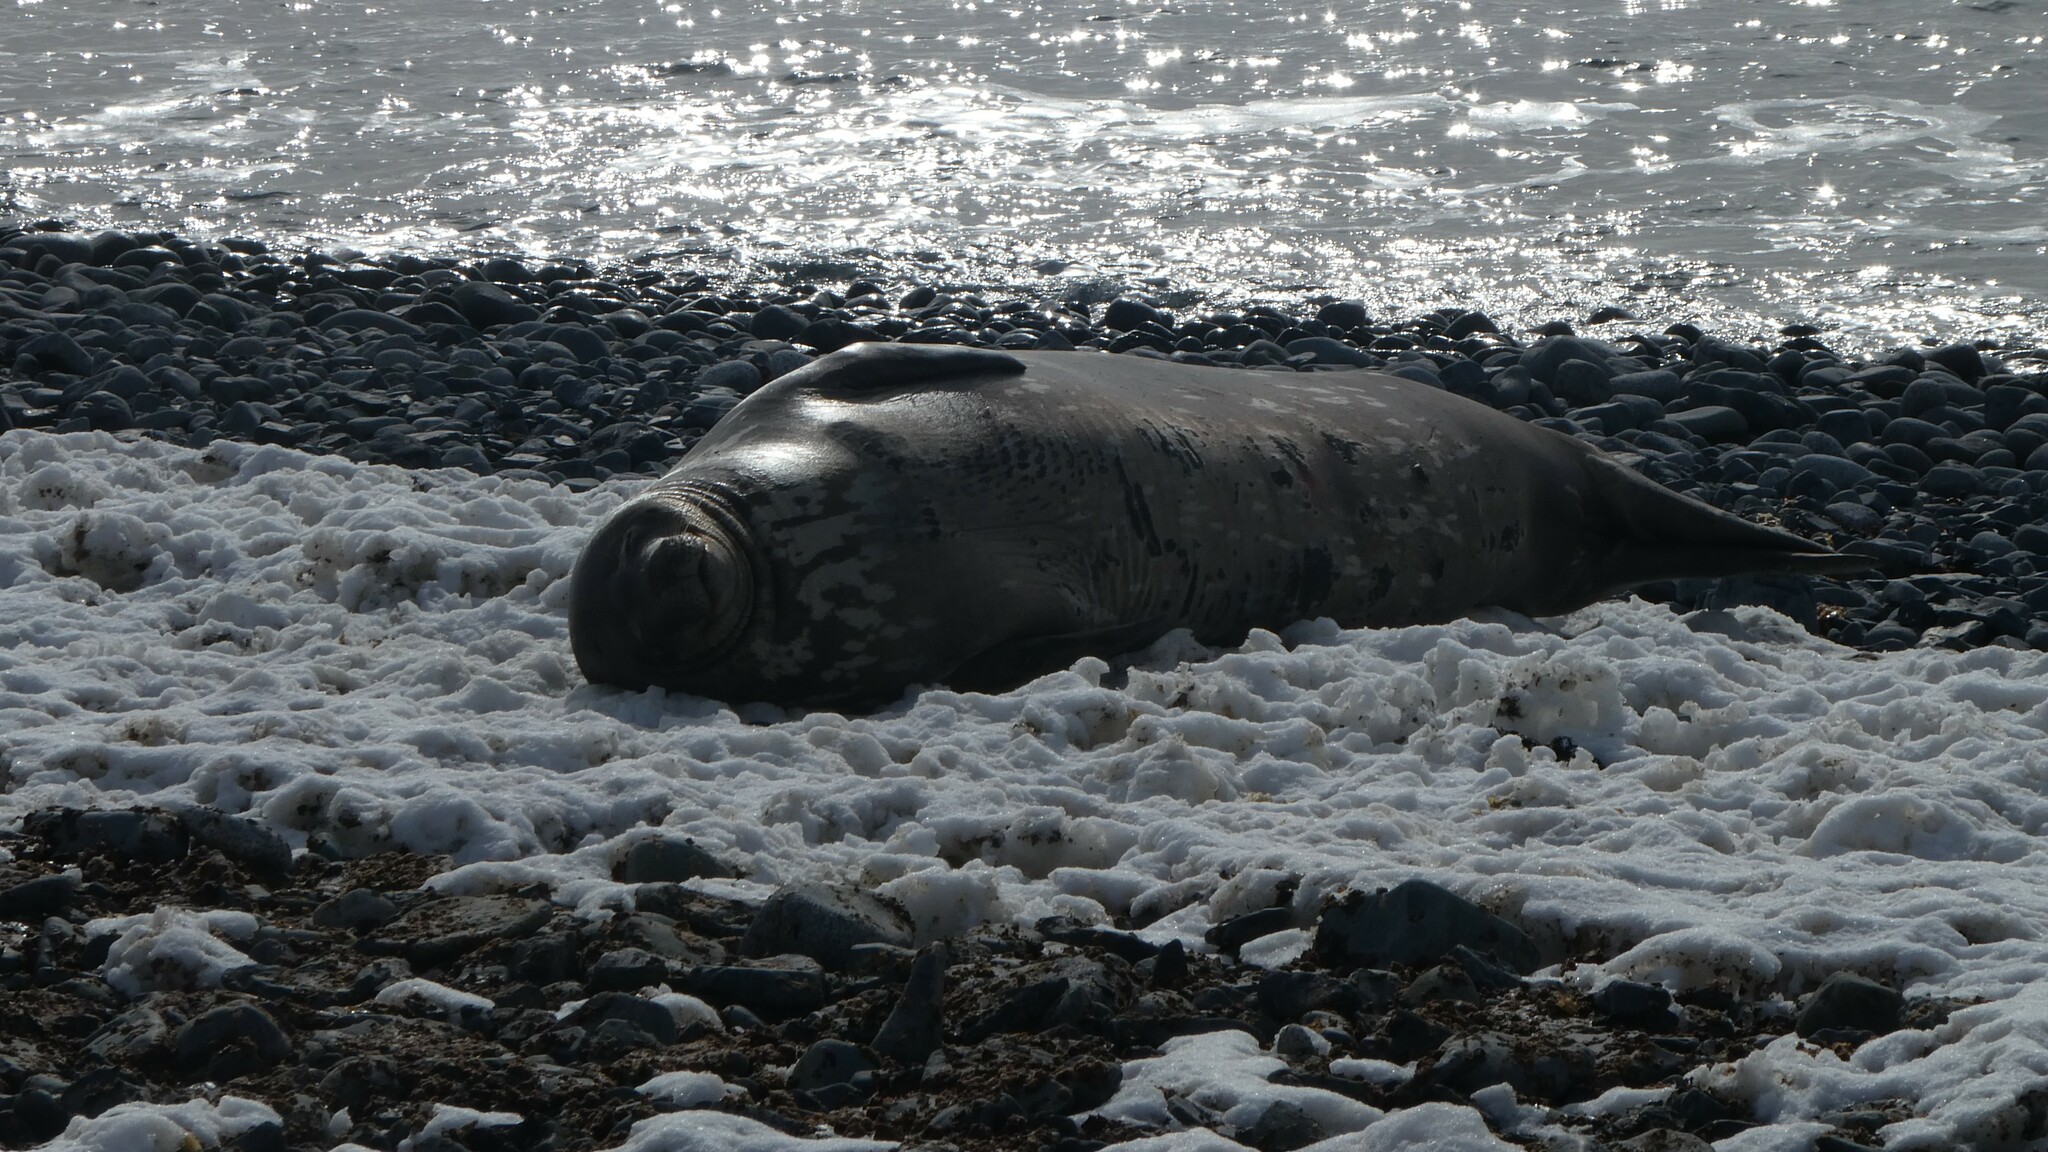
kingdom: Animalia
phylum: Chordata
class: Mammalia
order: Carnivora
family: Phocidae
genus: Leptonychotes
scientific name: Leptonychotes weddellii
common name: Weddell seal
